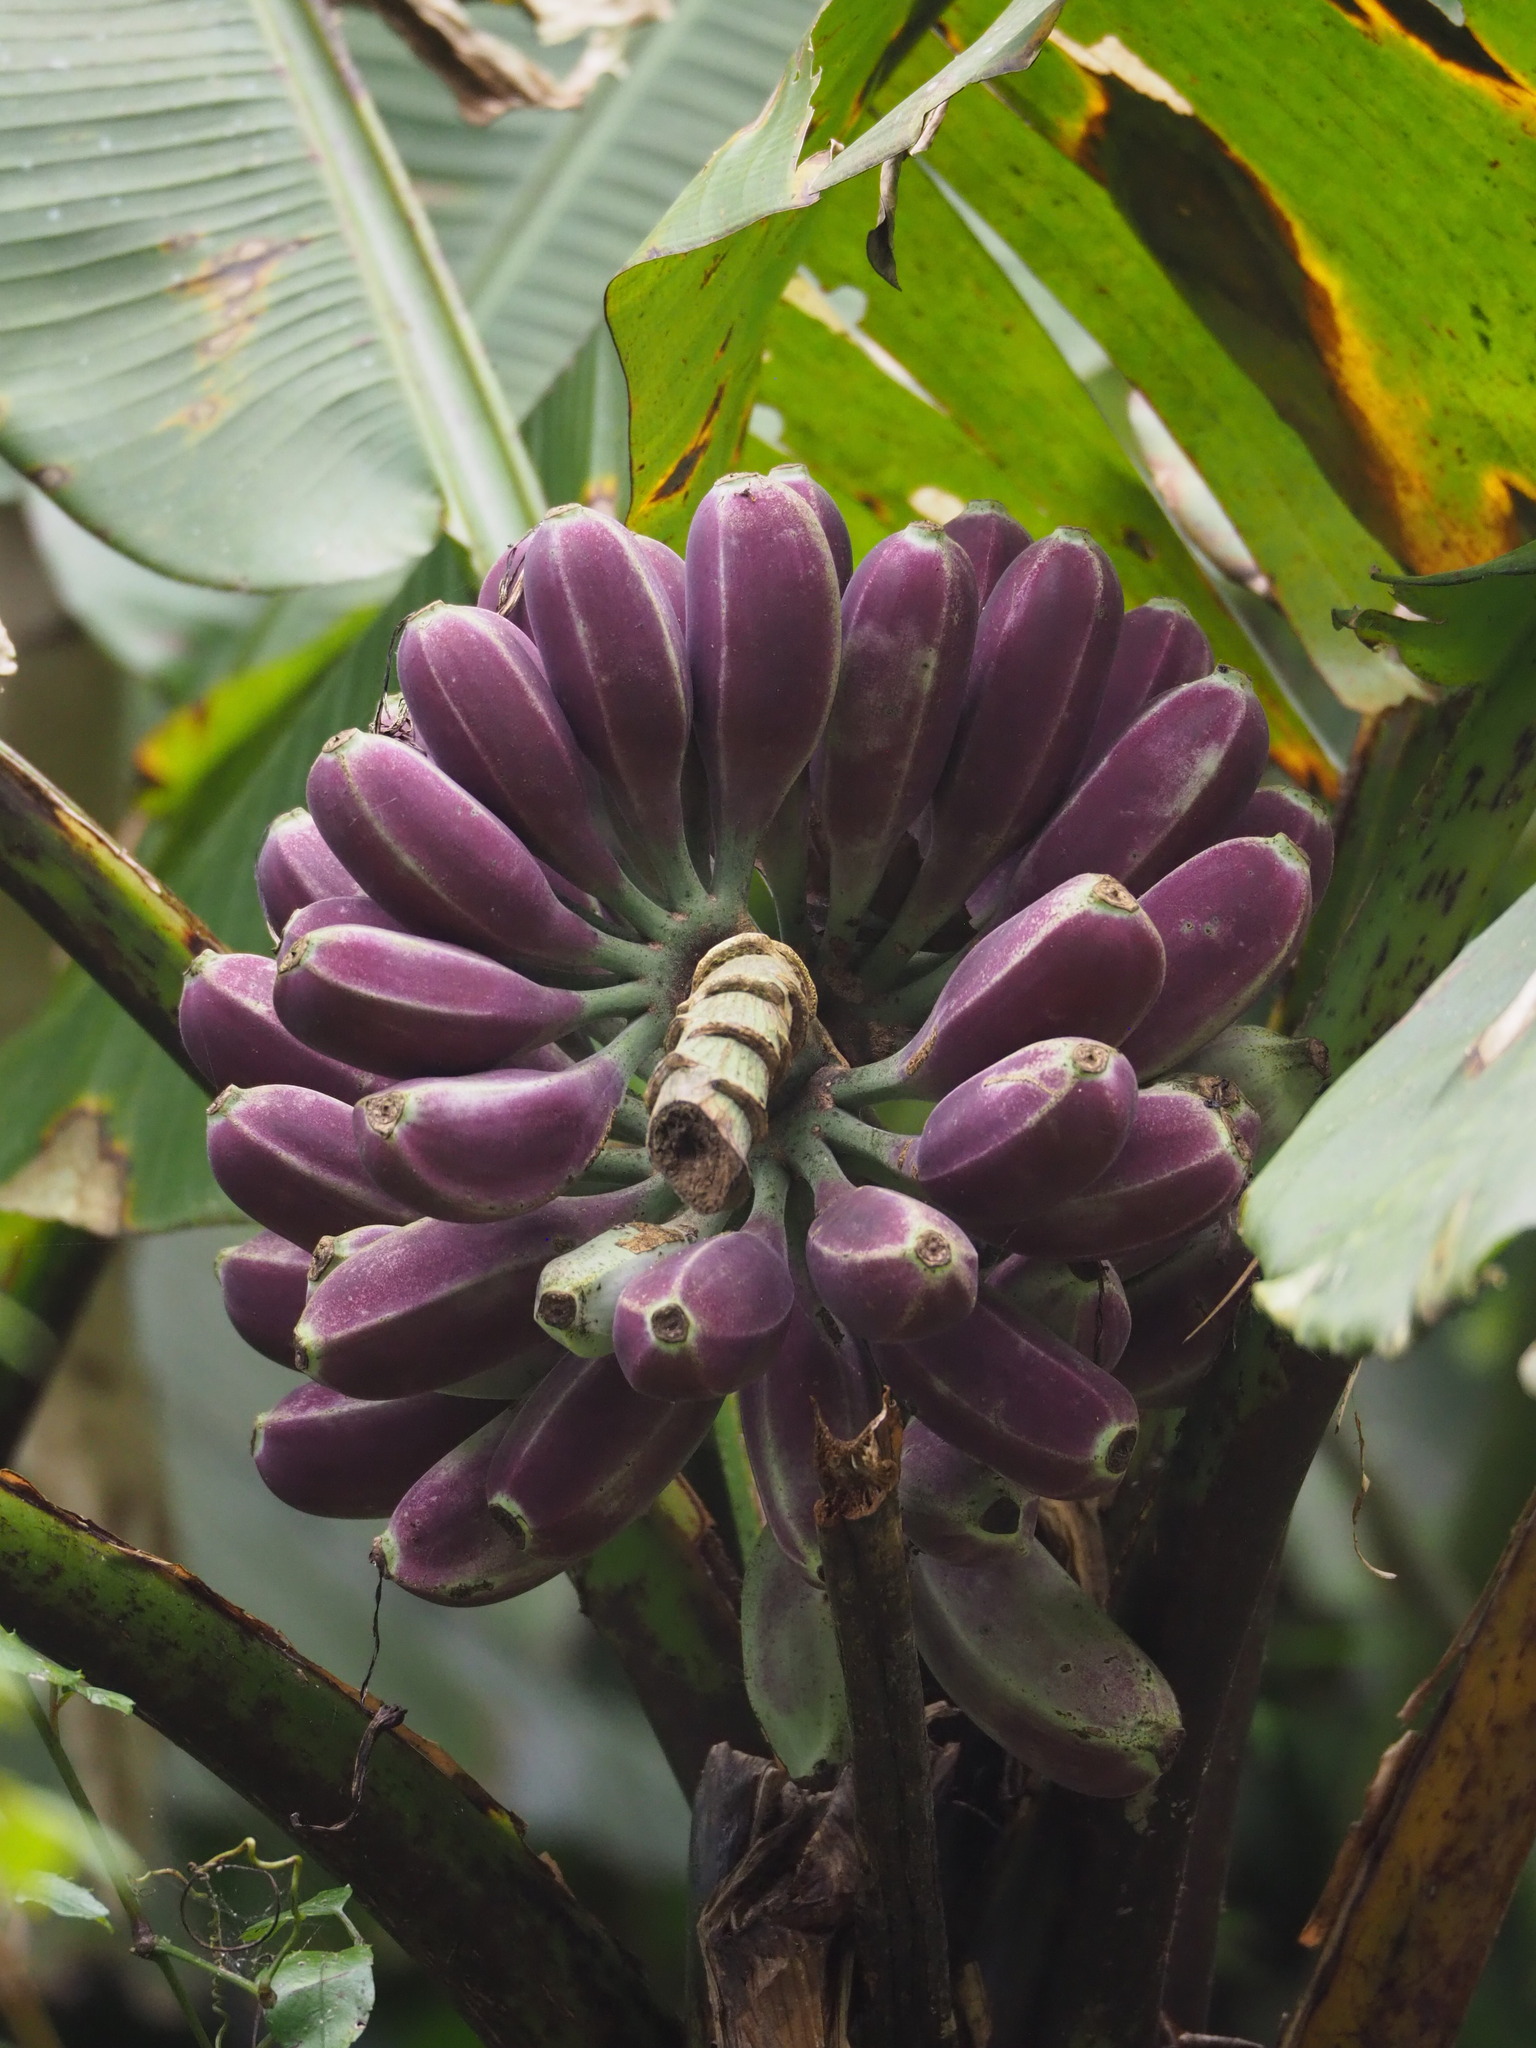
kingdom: Plantae
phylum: Tracheophyta
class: Liliopsida
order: Zingiberales
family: Musaceae
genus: Musa
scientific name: Musa itinerans
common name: Yunnan banana
